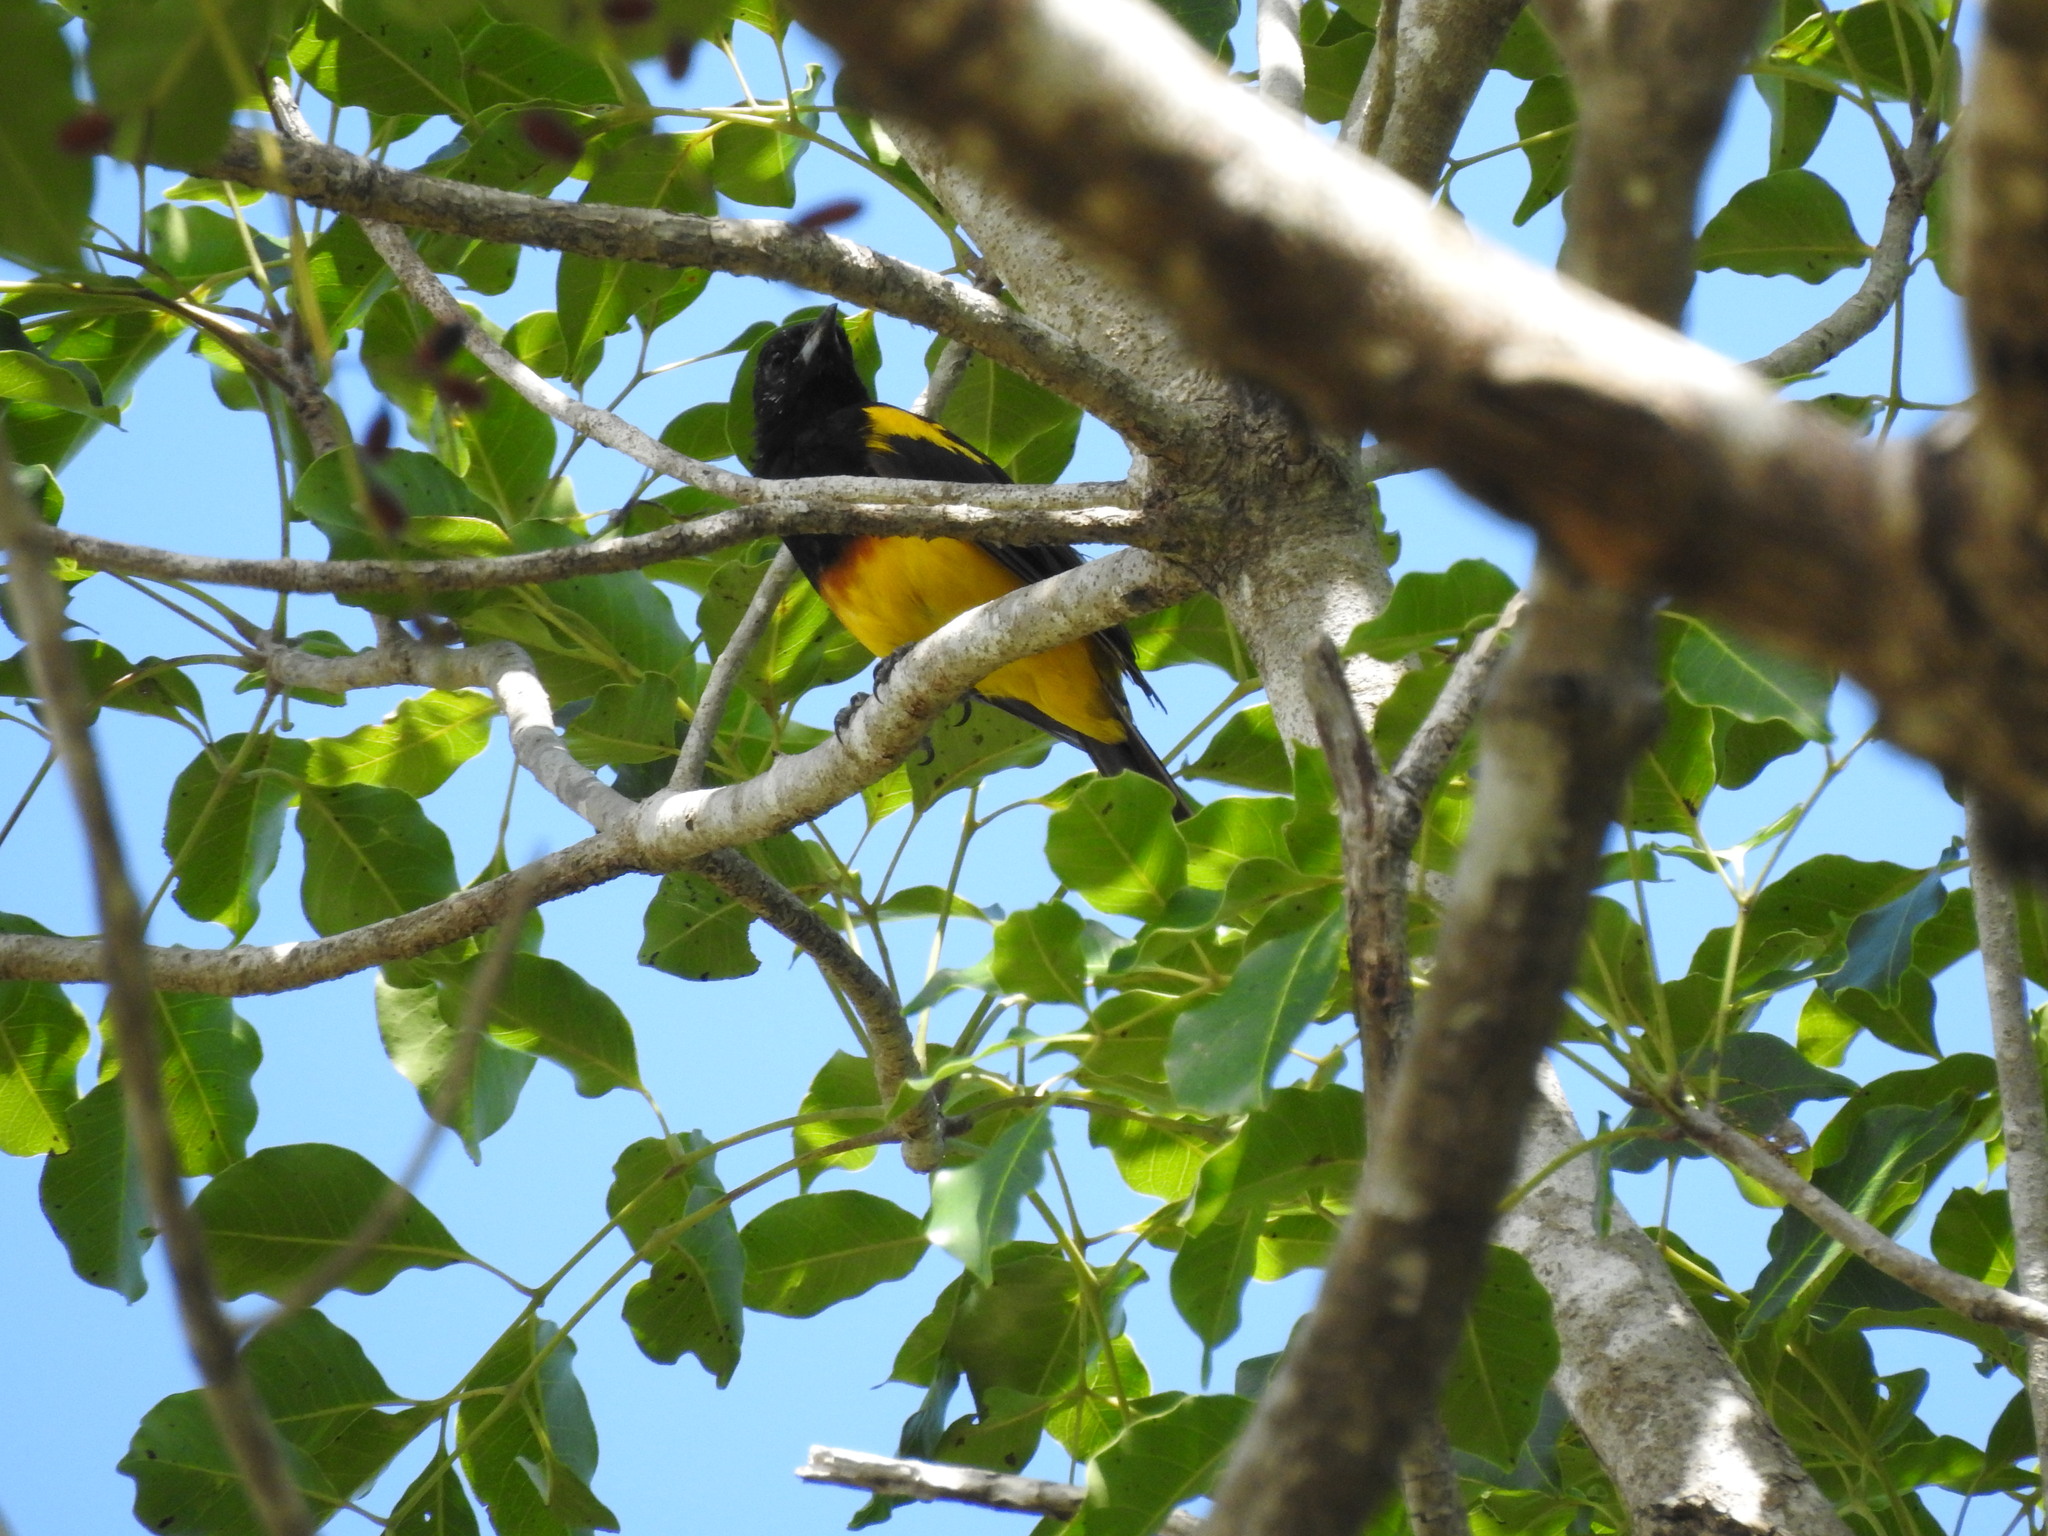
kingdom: Animalia
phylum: Chordata
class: Aves
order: Passeriformes
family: Icteridae
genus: Icterus
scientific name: Icterus prosthemelas
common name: Black-cowled oriole
